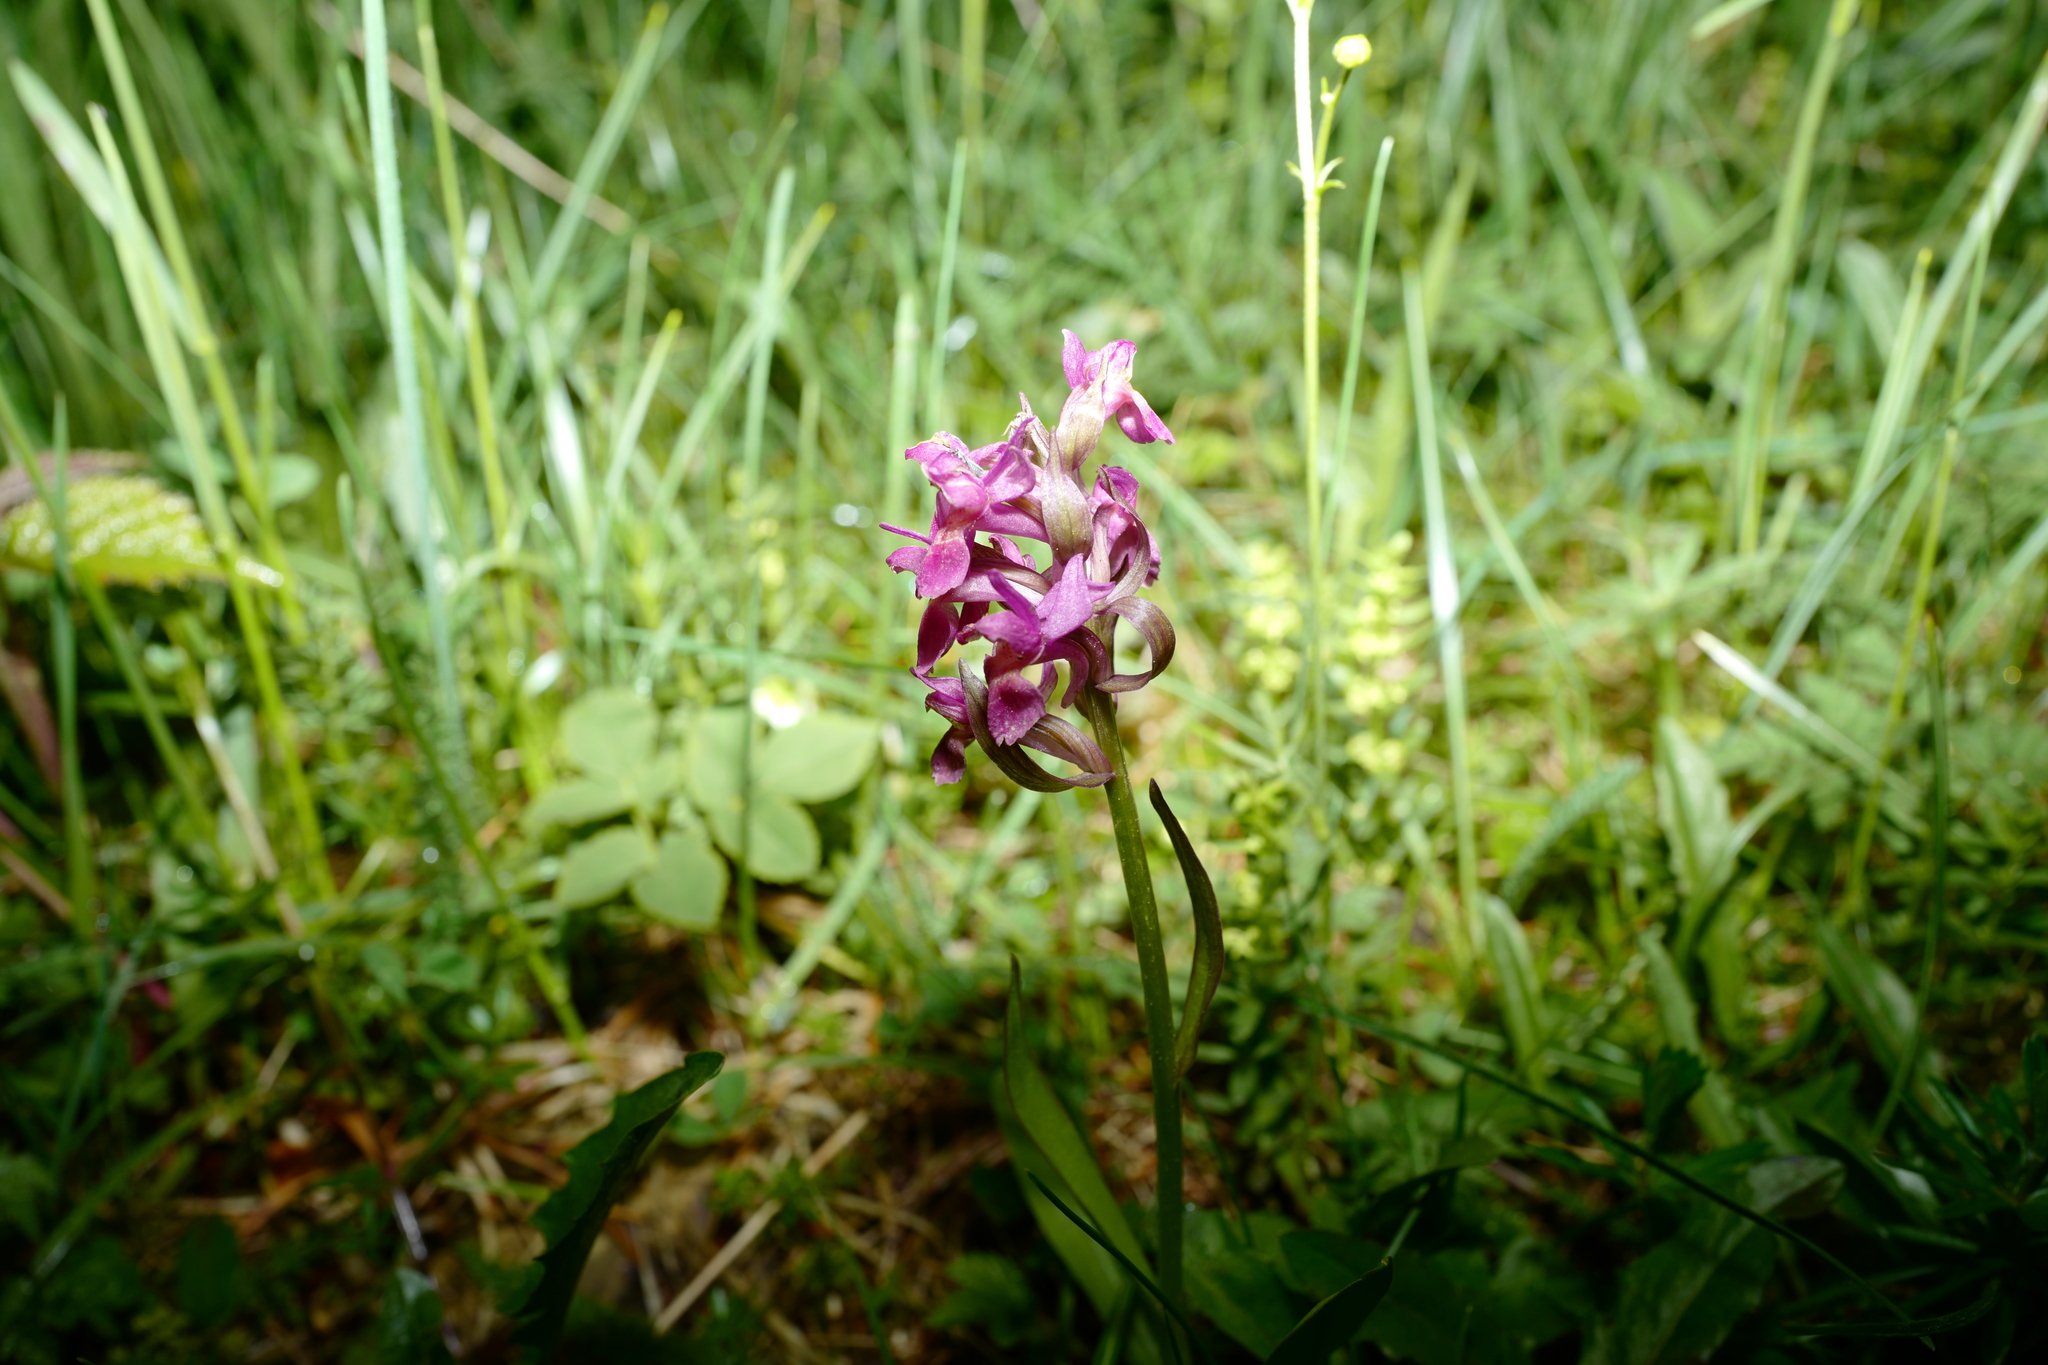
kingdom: Plantae
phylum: Tracheophyta
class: Liliopsida
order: Asparagales
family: Orchidaceae
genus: Dactylorhiza
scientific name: Dactylorhiza sambucina
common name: Elder-flowered orchid
